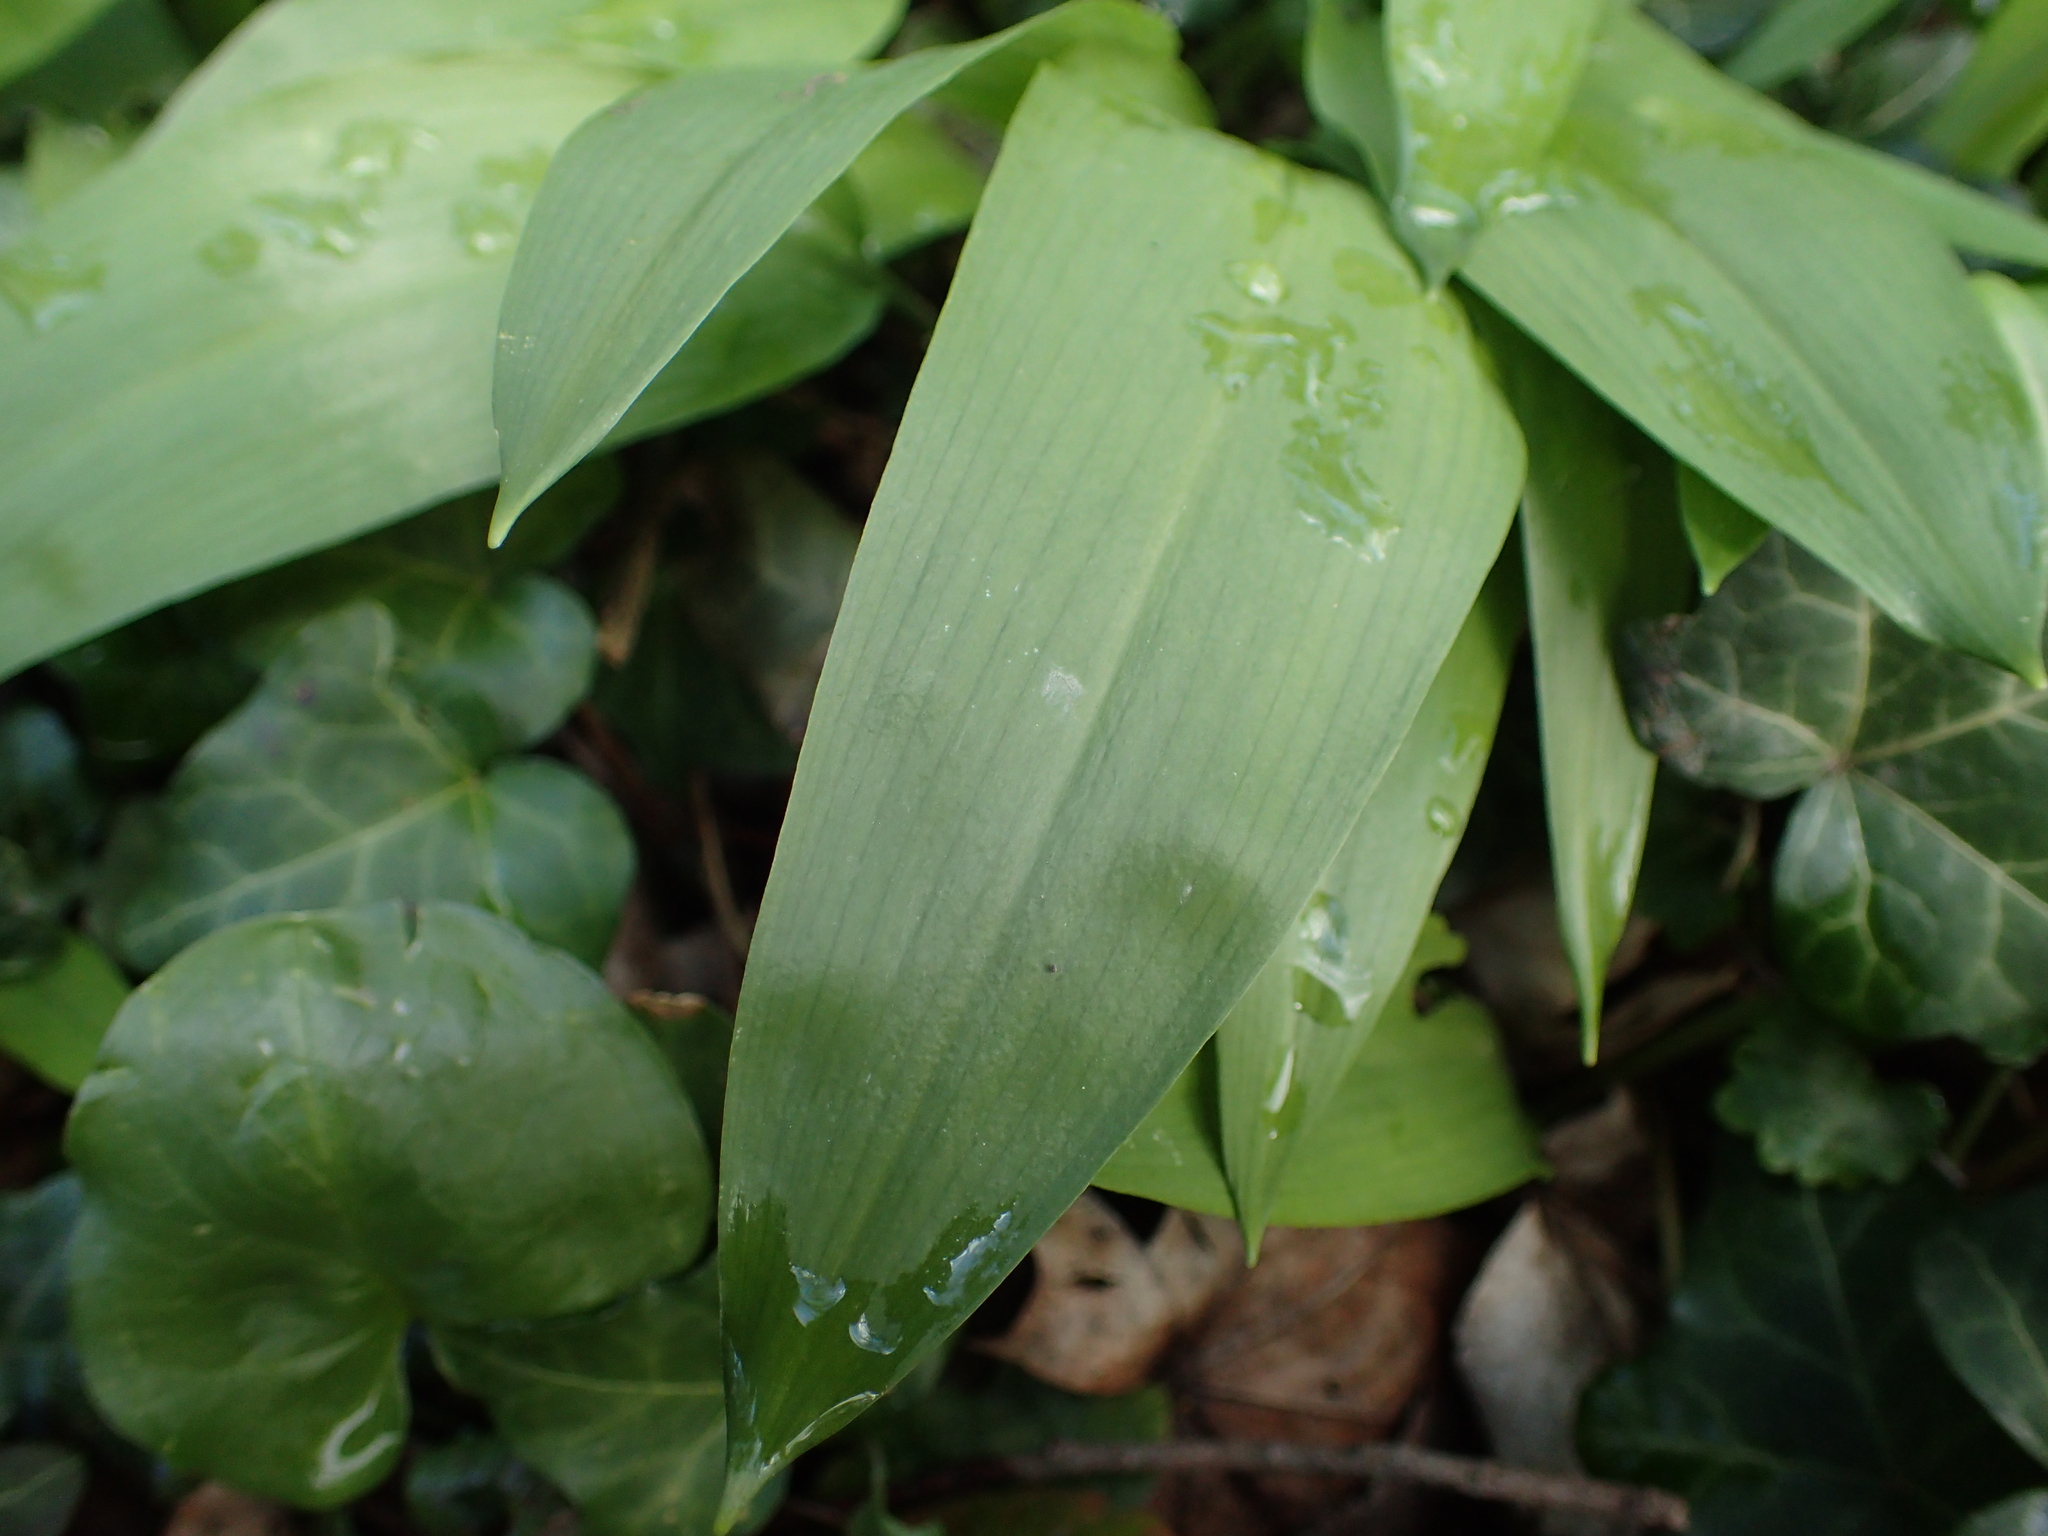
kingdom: Plantae
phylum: Tracheophyta
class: Liliopsida
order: Asparagales
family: Amaryllidaceae
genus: Allium
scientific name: Allium ursinum
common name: Ramsons
